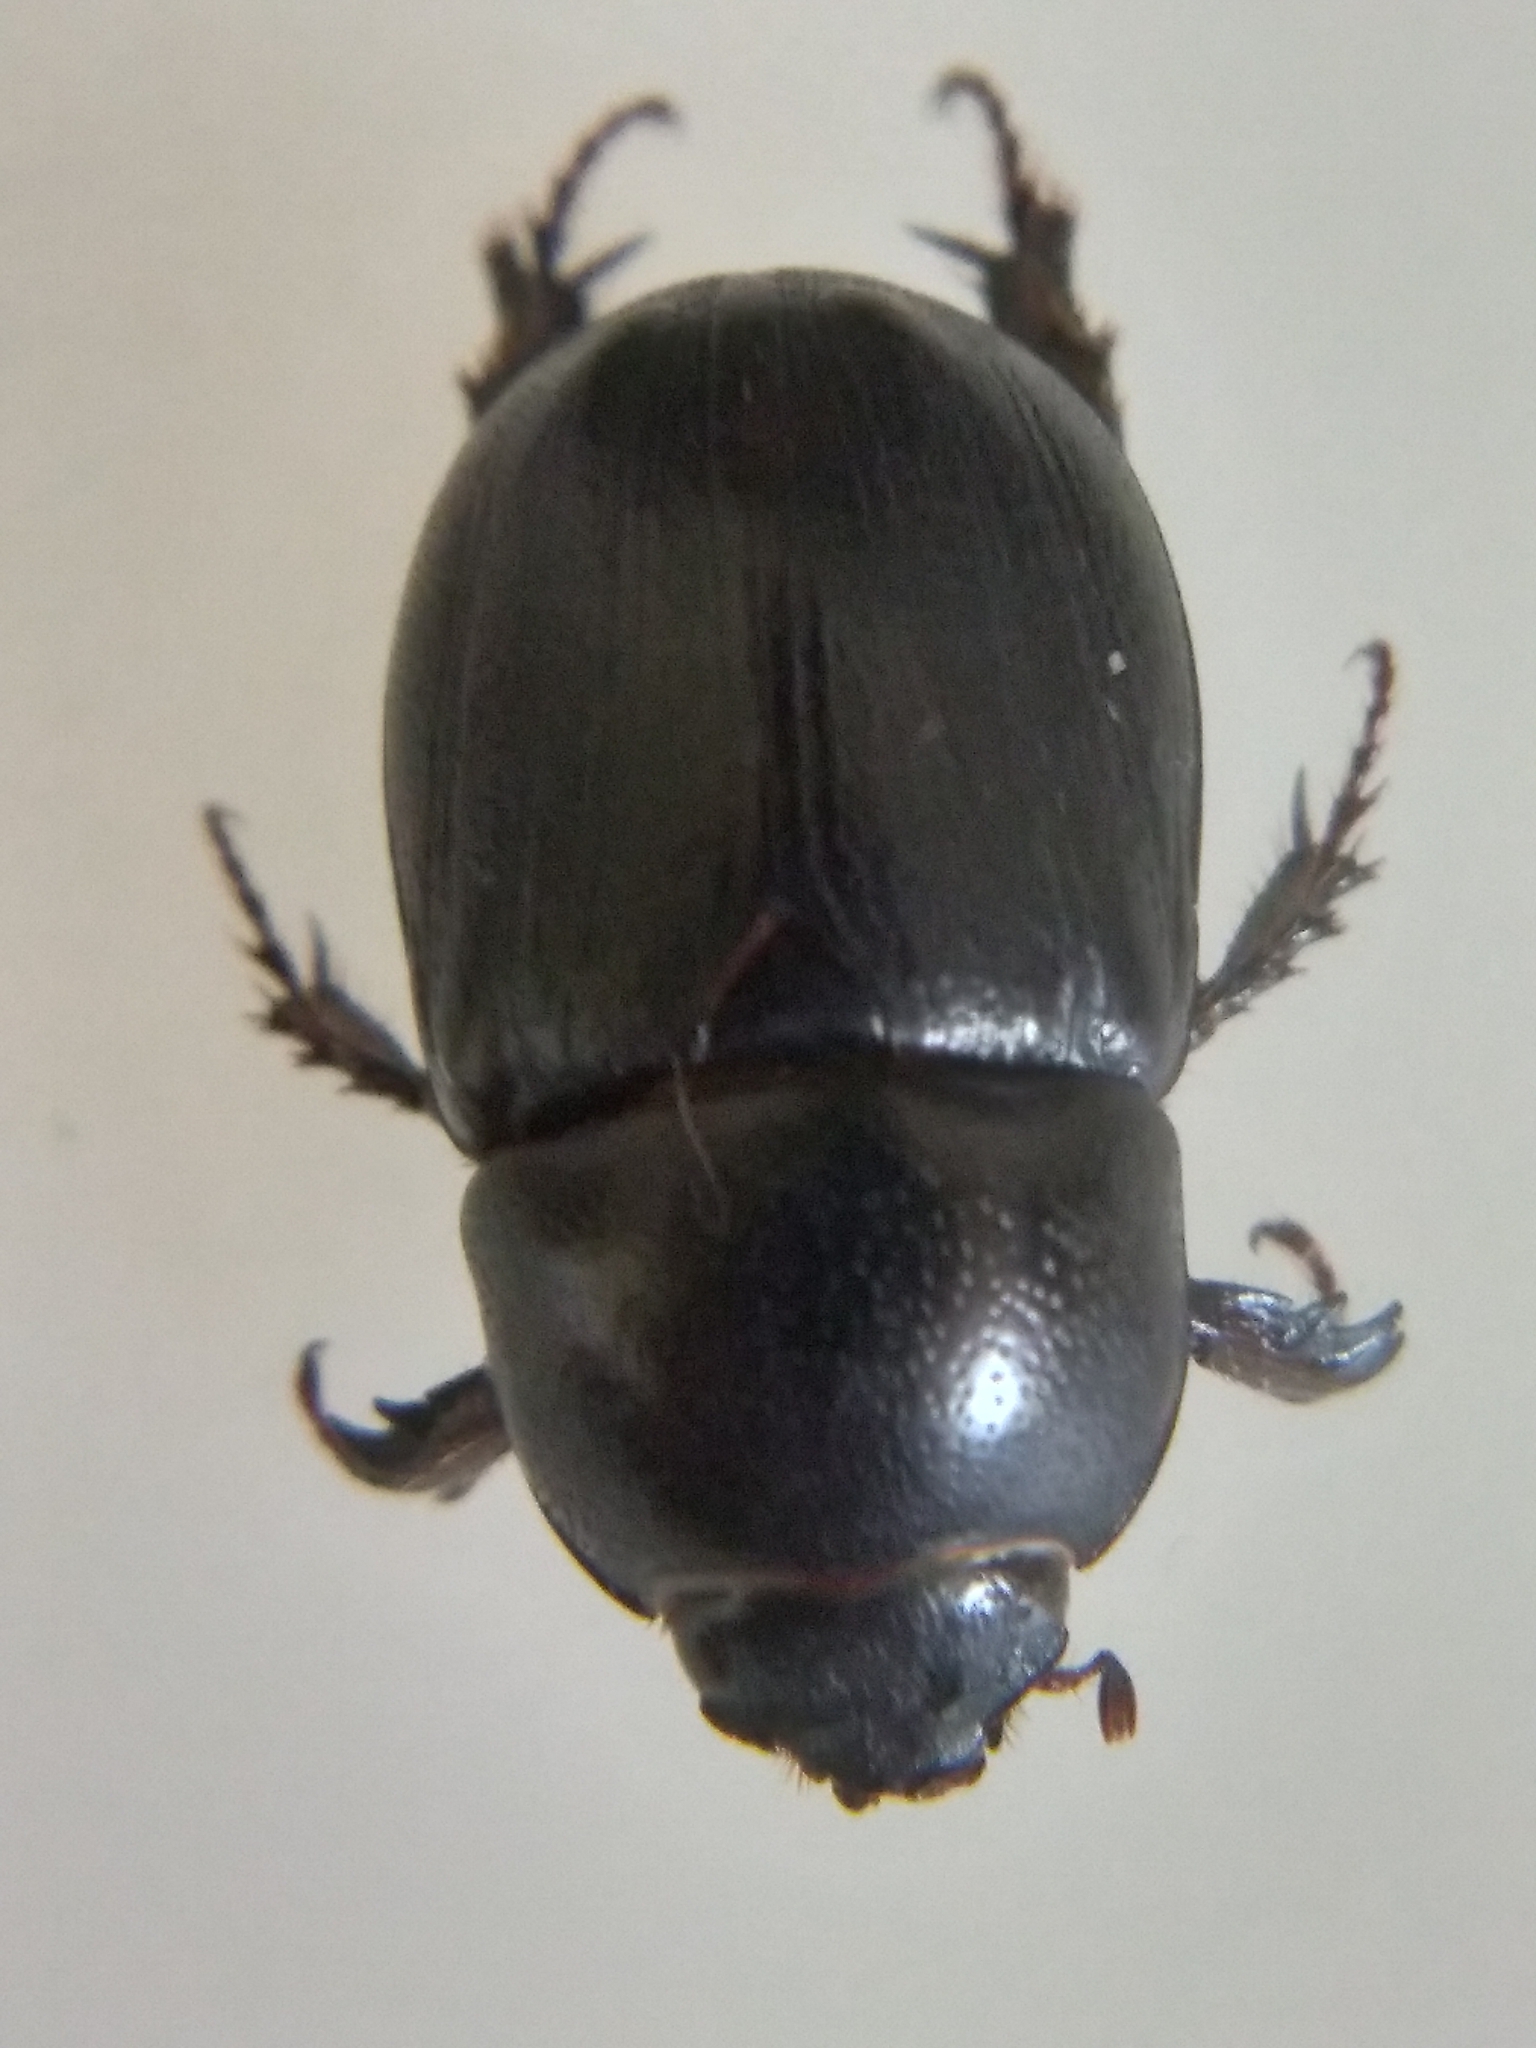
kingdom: Animalia
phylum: Arthropoda
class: Insecta
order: Coleoptera
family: Scarabaeidae
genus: Euetheola
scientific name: Euetheola humilis
